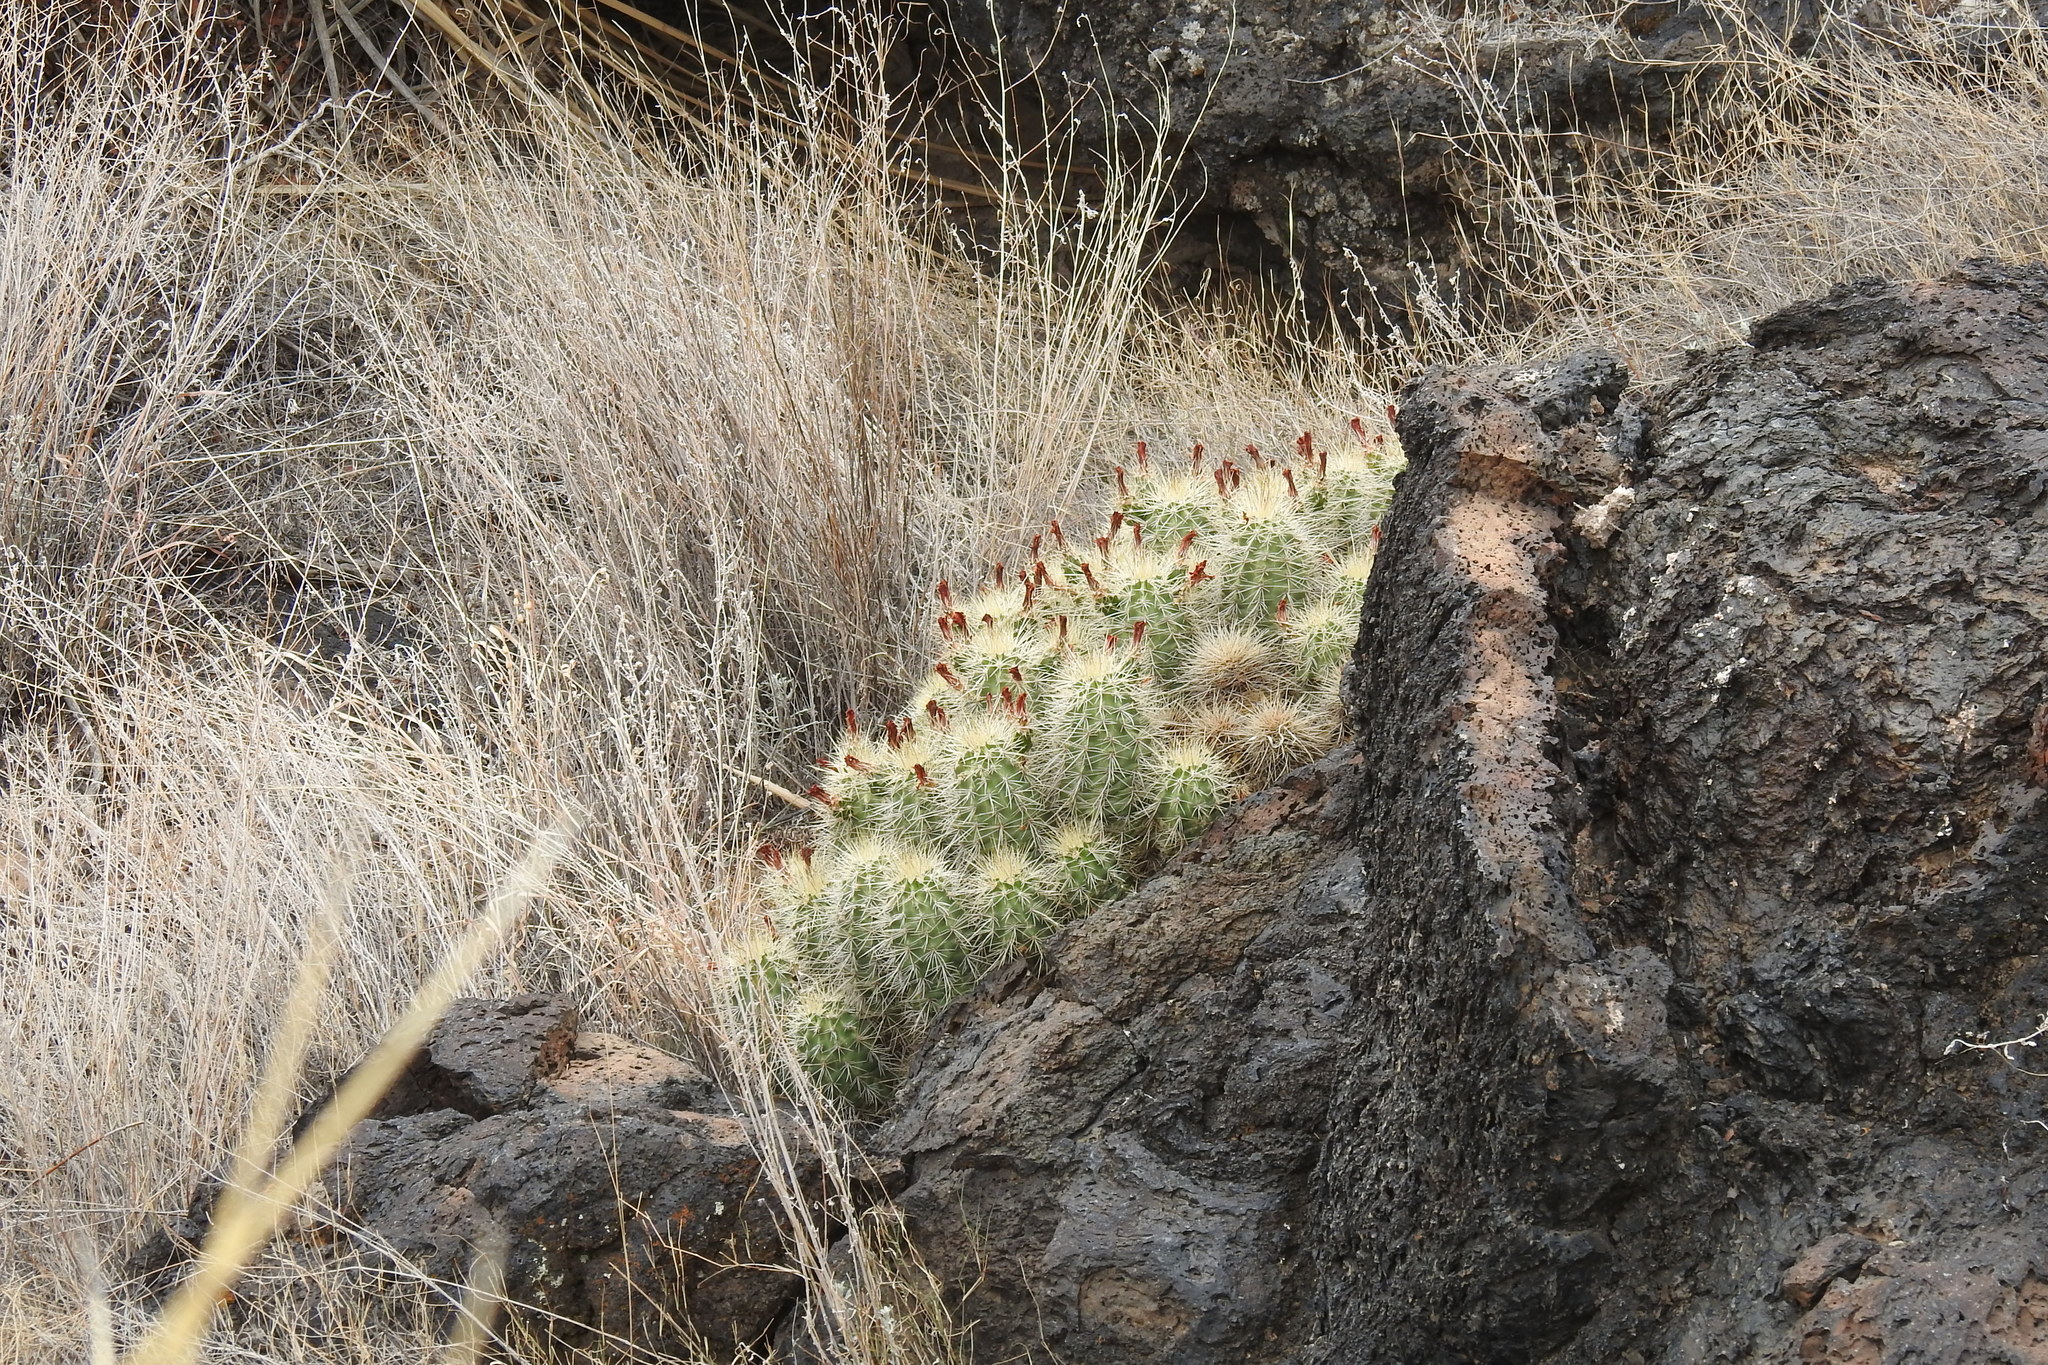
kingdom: Plantae
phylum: Tracheophyta
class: Magnoliopsida
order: Caryophyllales
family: Cactaceae
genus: Echinocereus
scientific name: Echinocereus coccineus
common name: Scarlet hedgehog cactus
